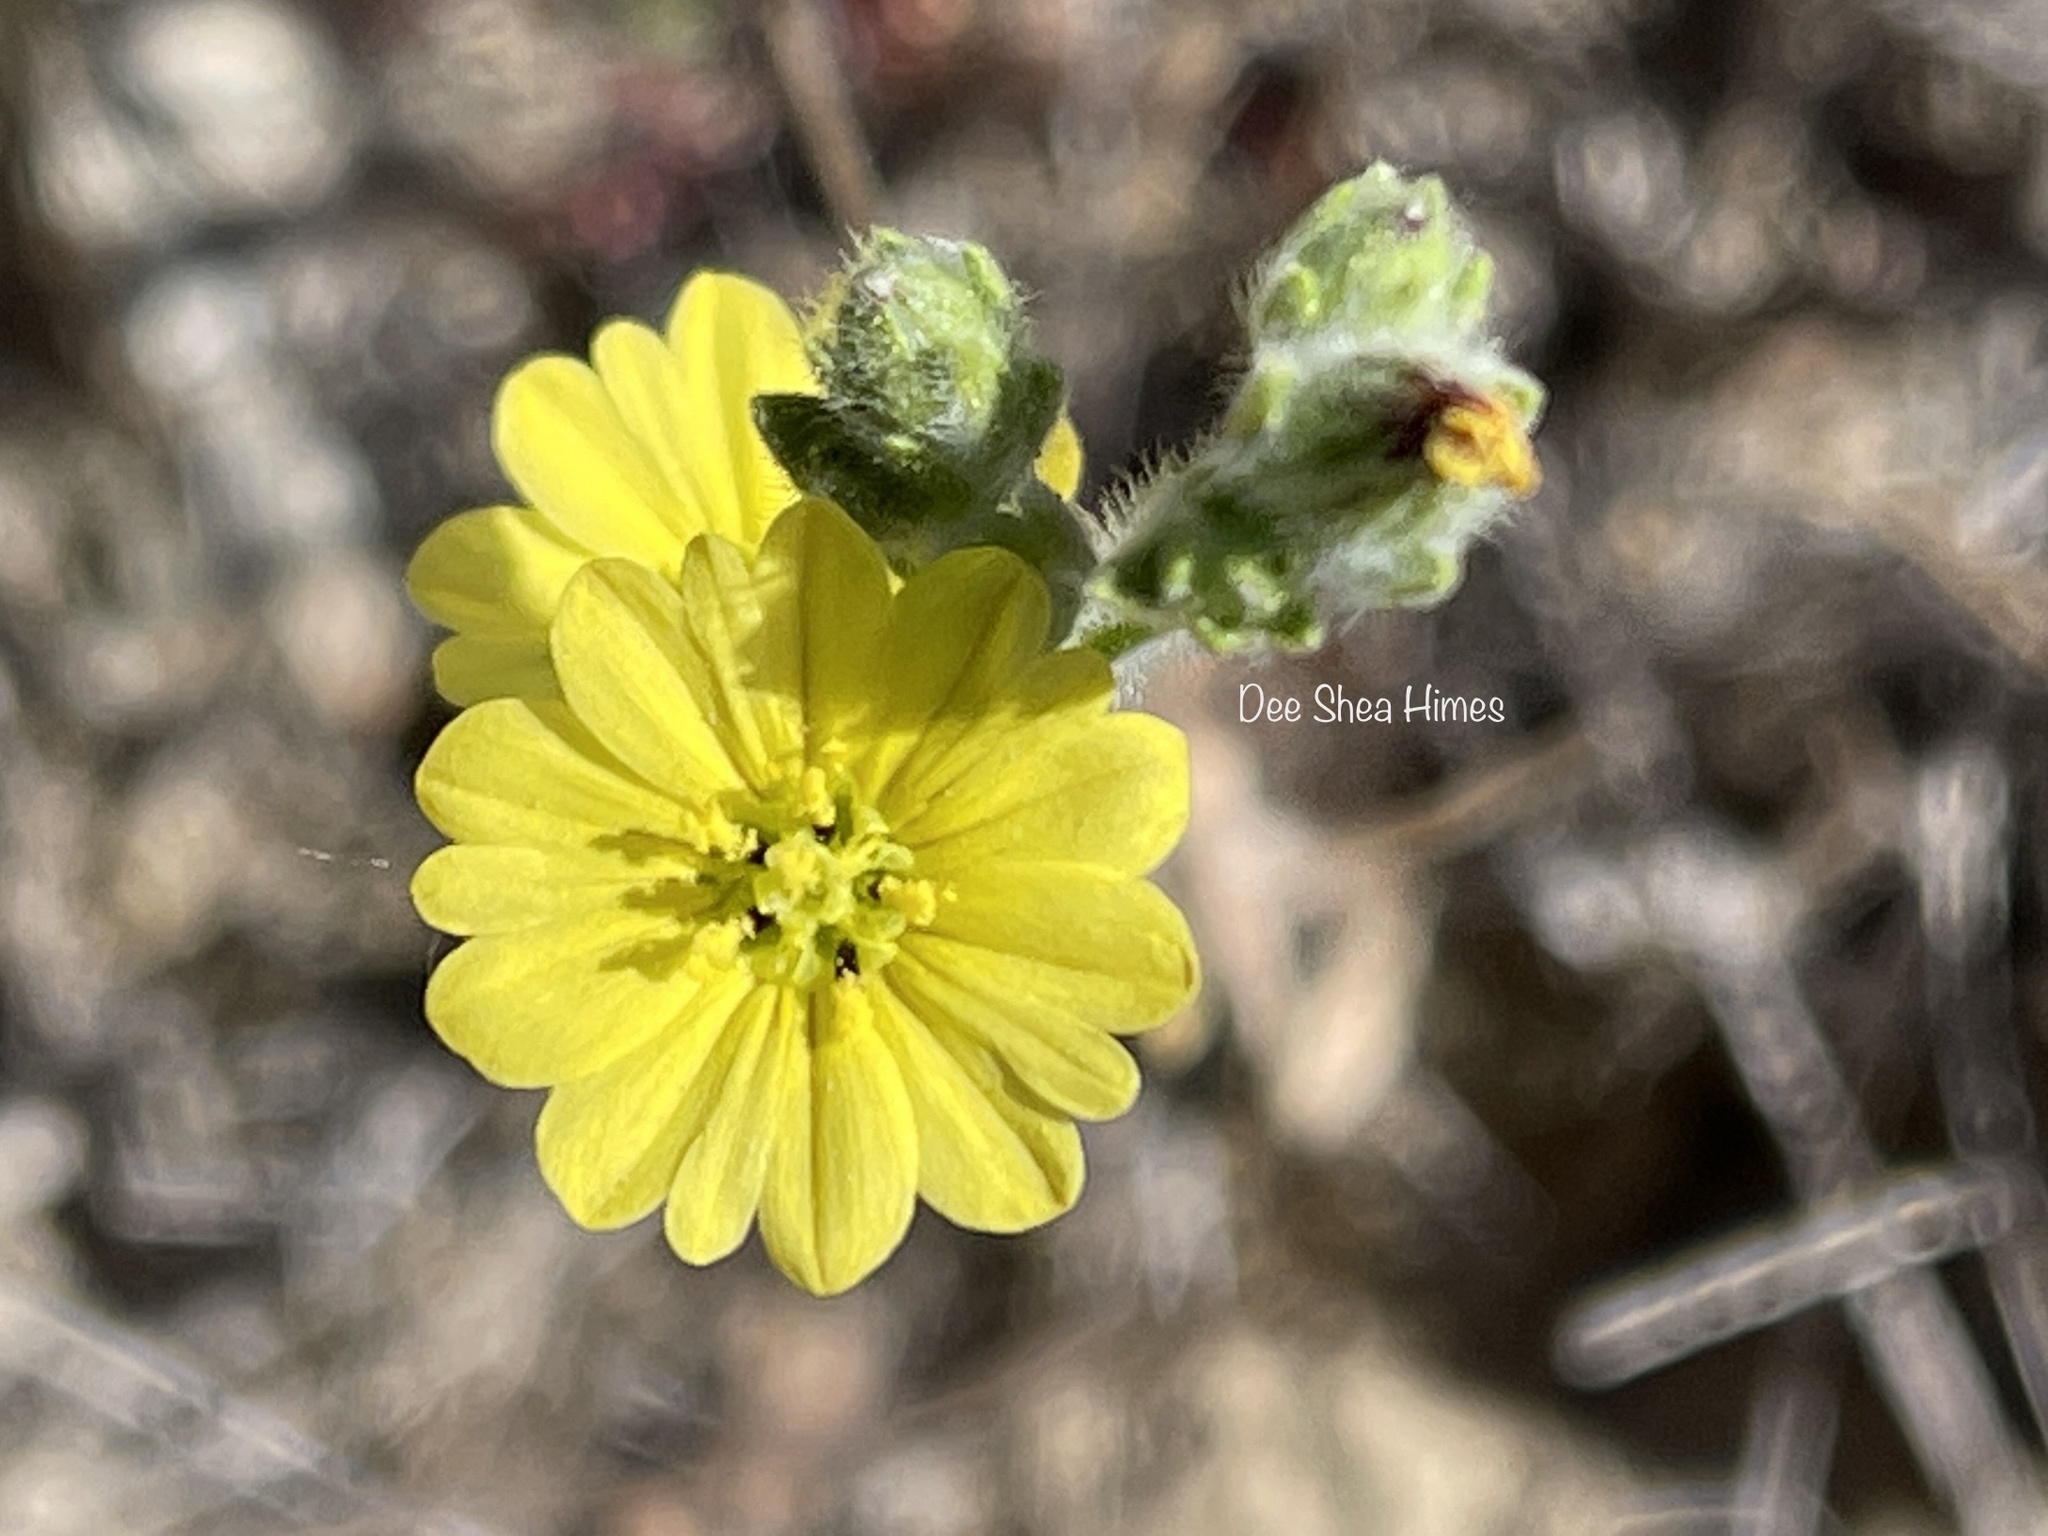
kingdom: Plantae
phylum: Tracheophyta
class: Magnoliopsida
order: Asterales
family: Asteraceae
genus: Lagophylla
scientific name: Lagophylla ramosissima
